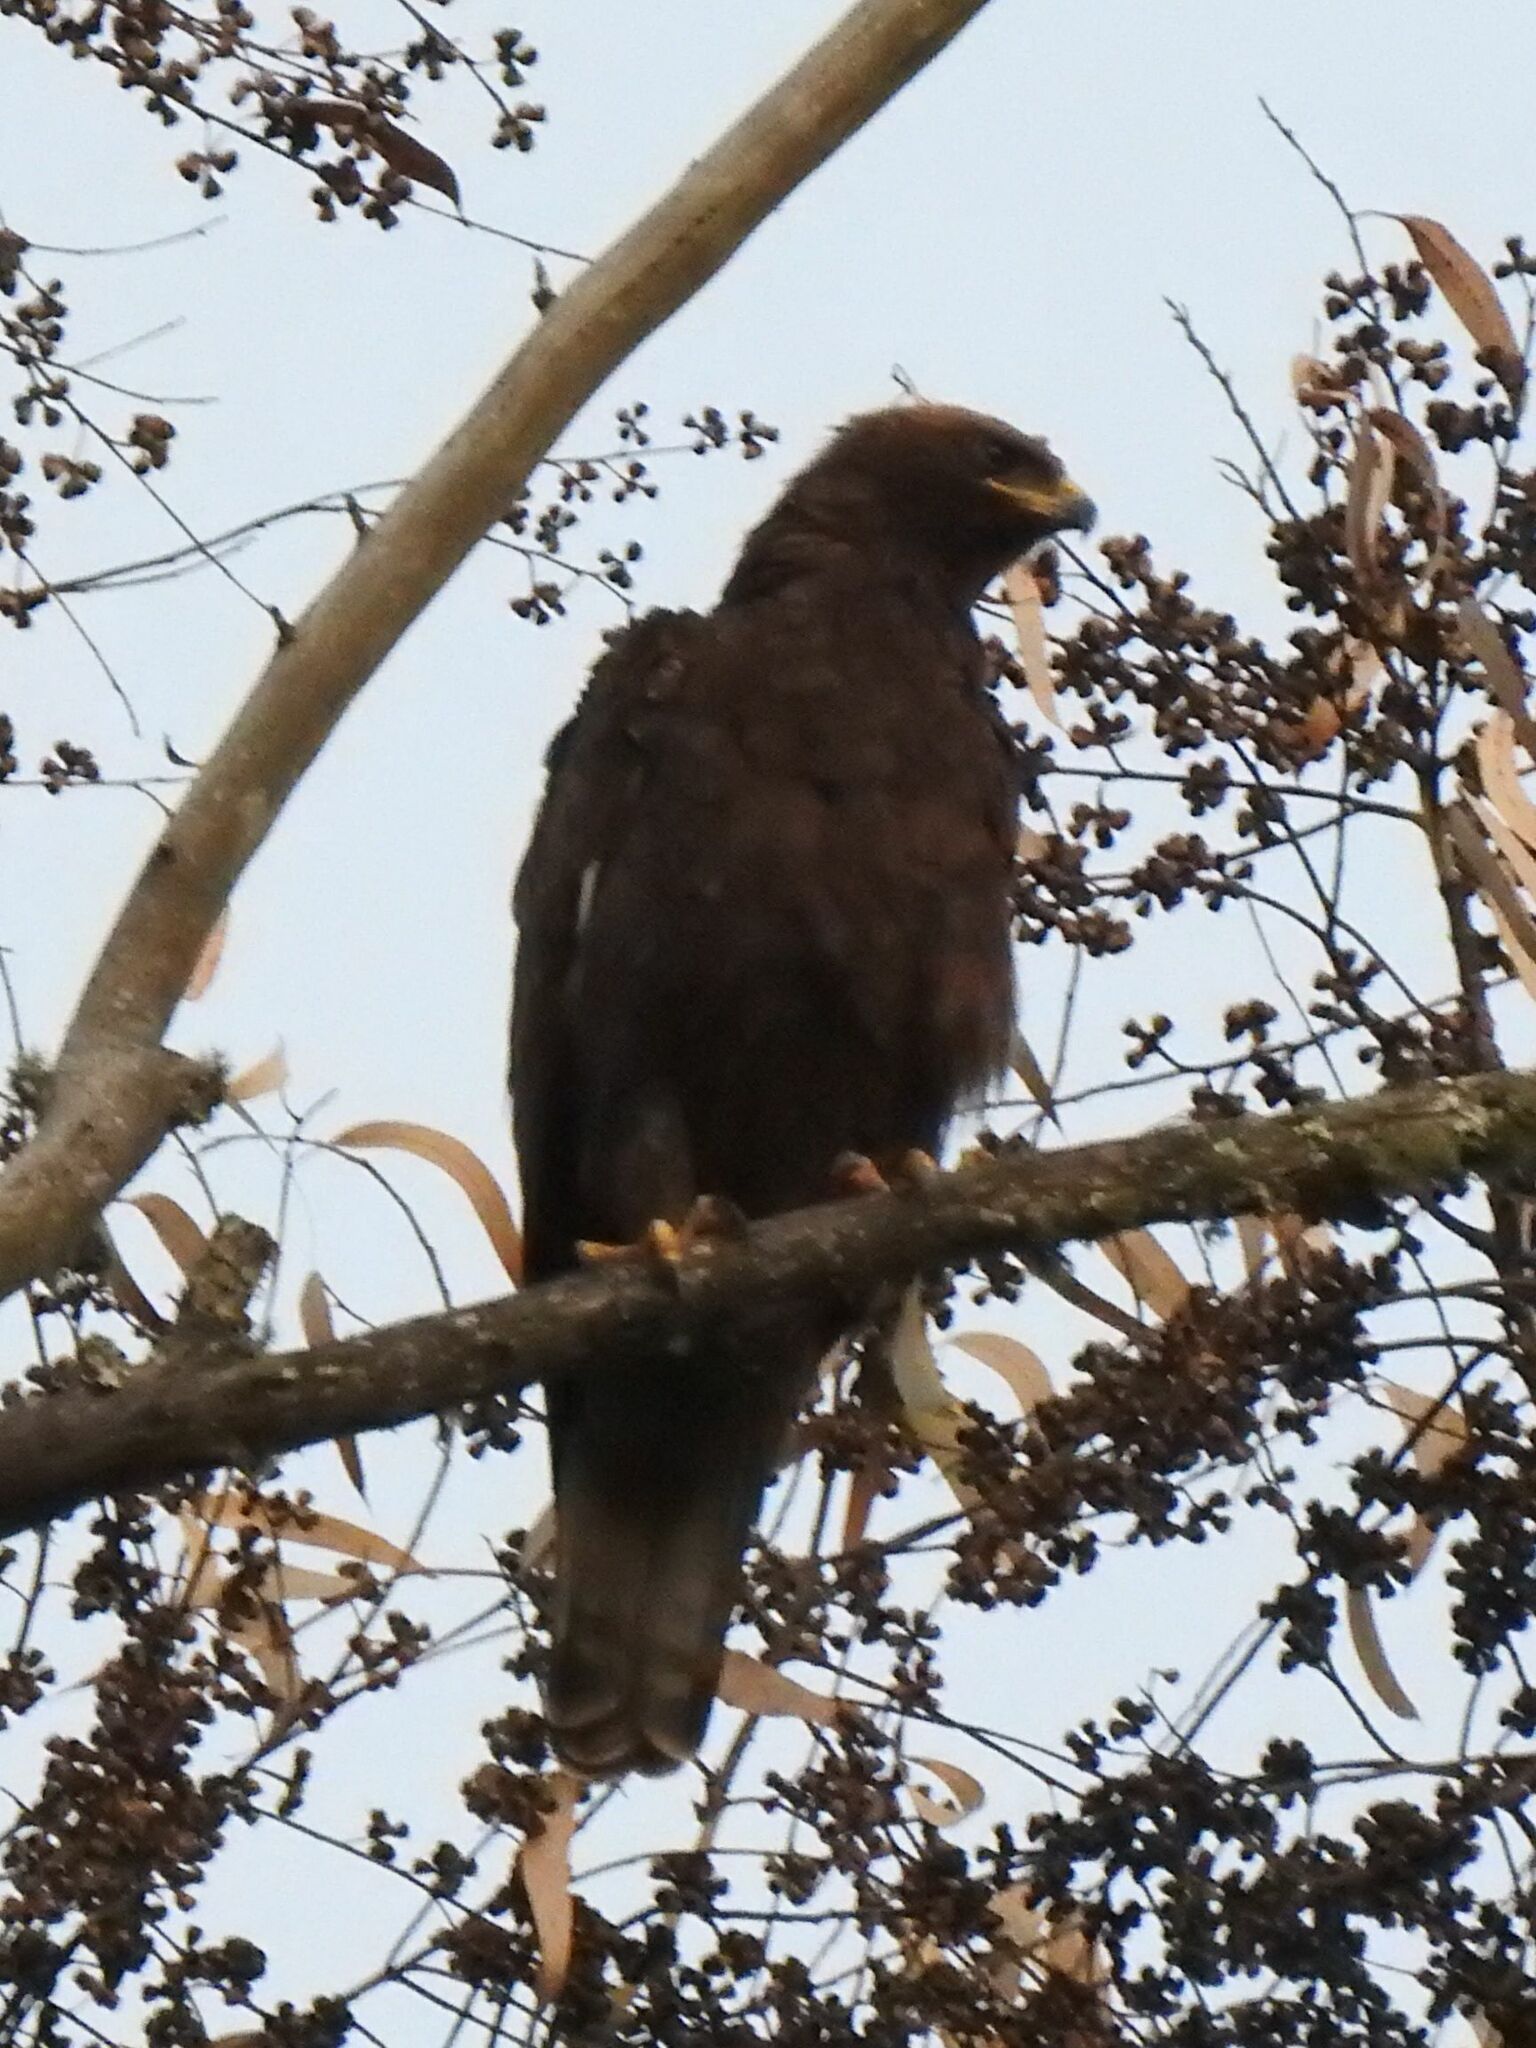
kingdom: Animalia
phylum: Chordata
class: Aves
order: Accipitriformes
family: Accipitridae
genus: Hieraaetus
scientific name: Hieraaetus wahlbergi
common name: Wahlberg's eagle
